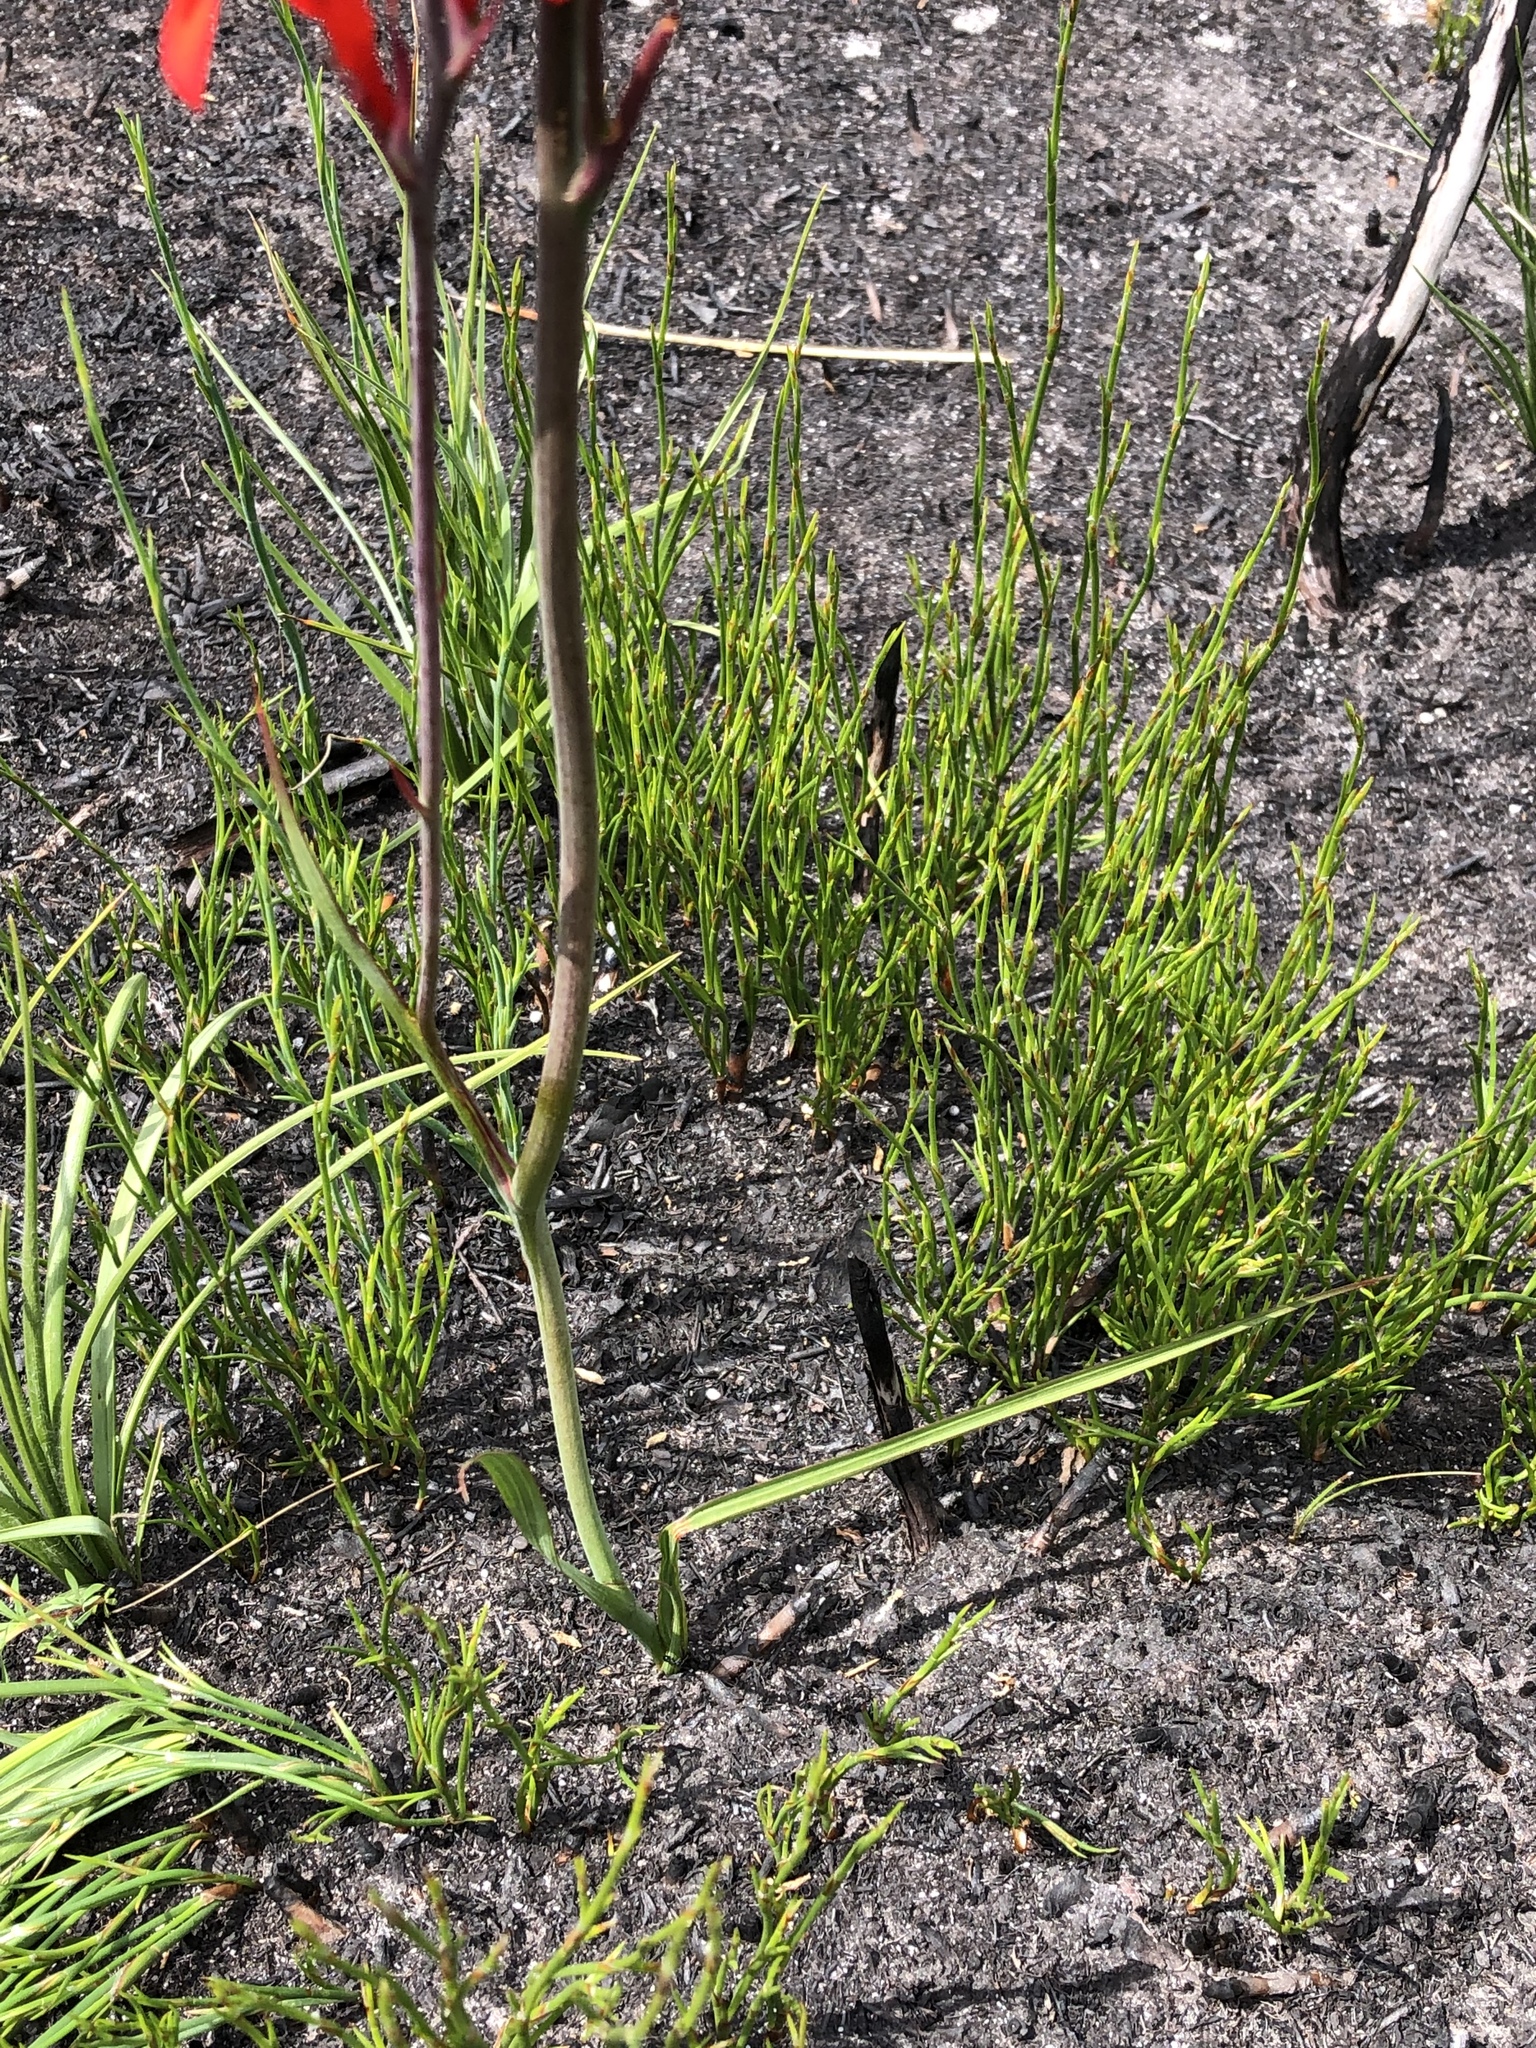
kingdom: Plantae
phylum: Tracheophyta
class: Liliopsida
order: Asparagales
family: Iridaceae
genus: Tritoniopsis
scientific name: Tritoniopsis caffra
